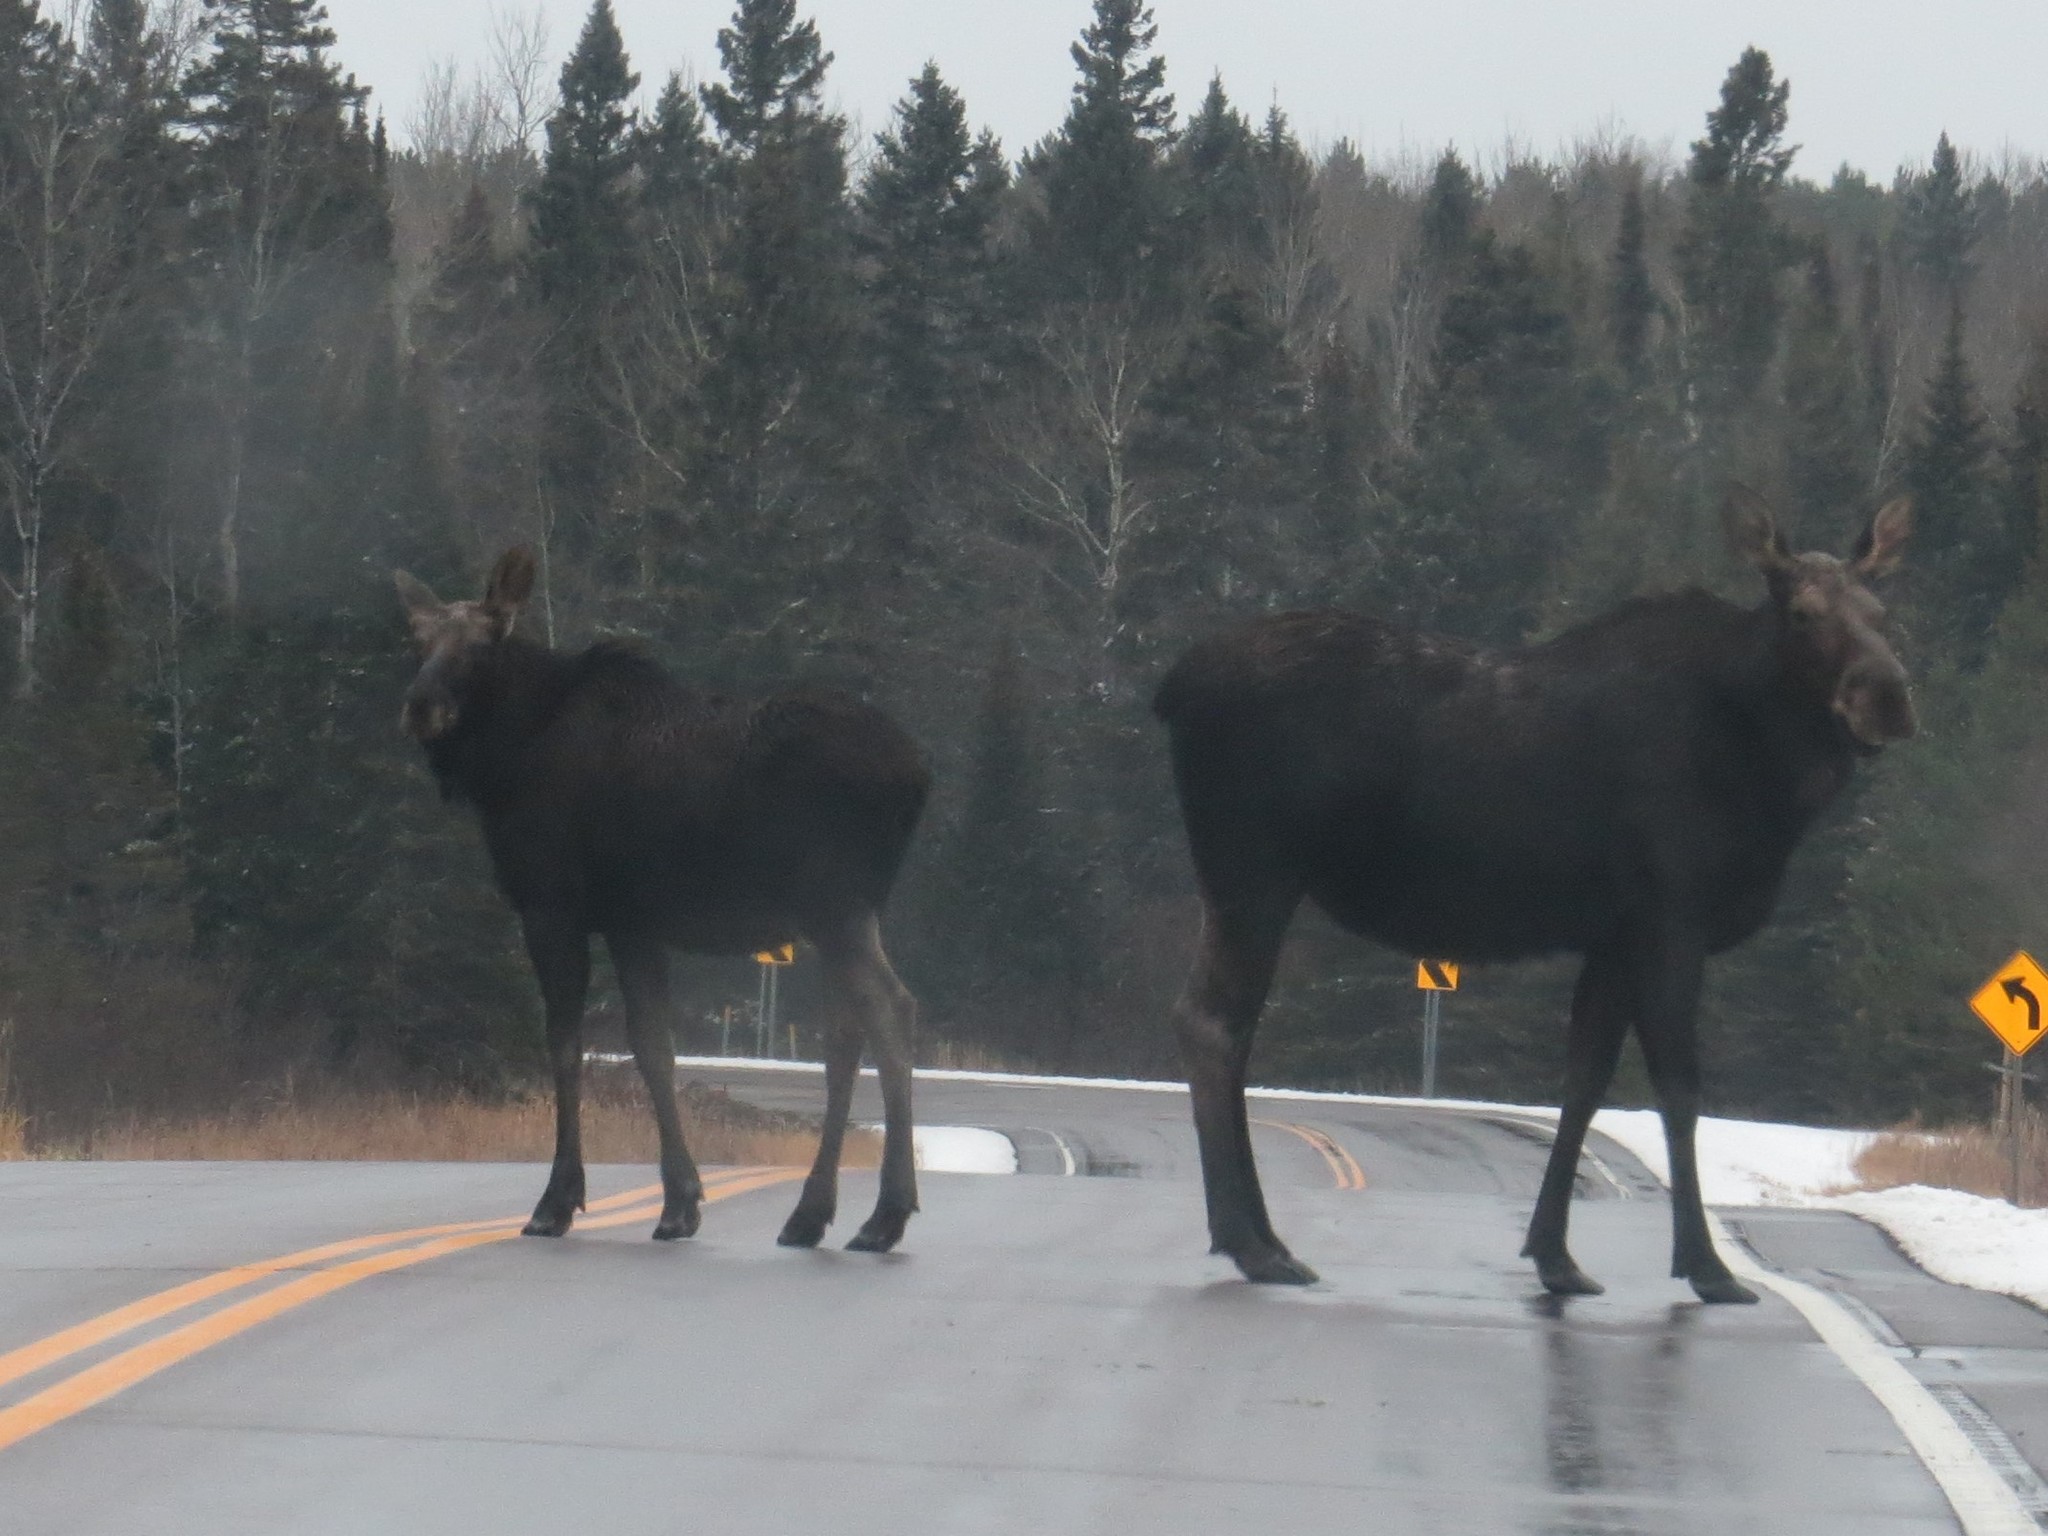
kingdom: Animalia
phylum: Chordata
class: Mammalia
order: Artiodactyla
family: Cervidae
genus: Alces
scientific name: Alces alces
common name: Moose
